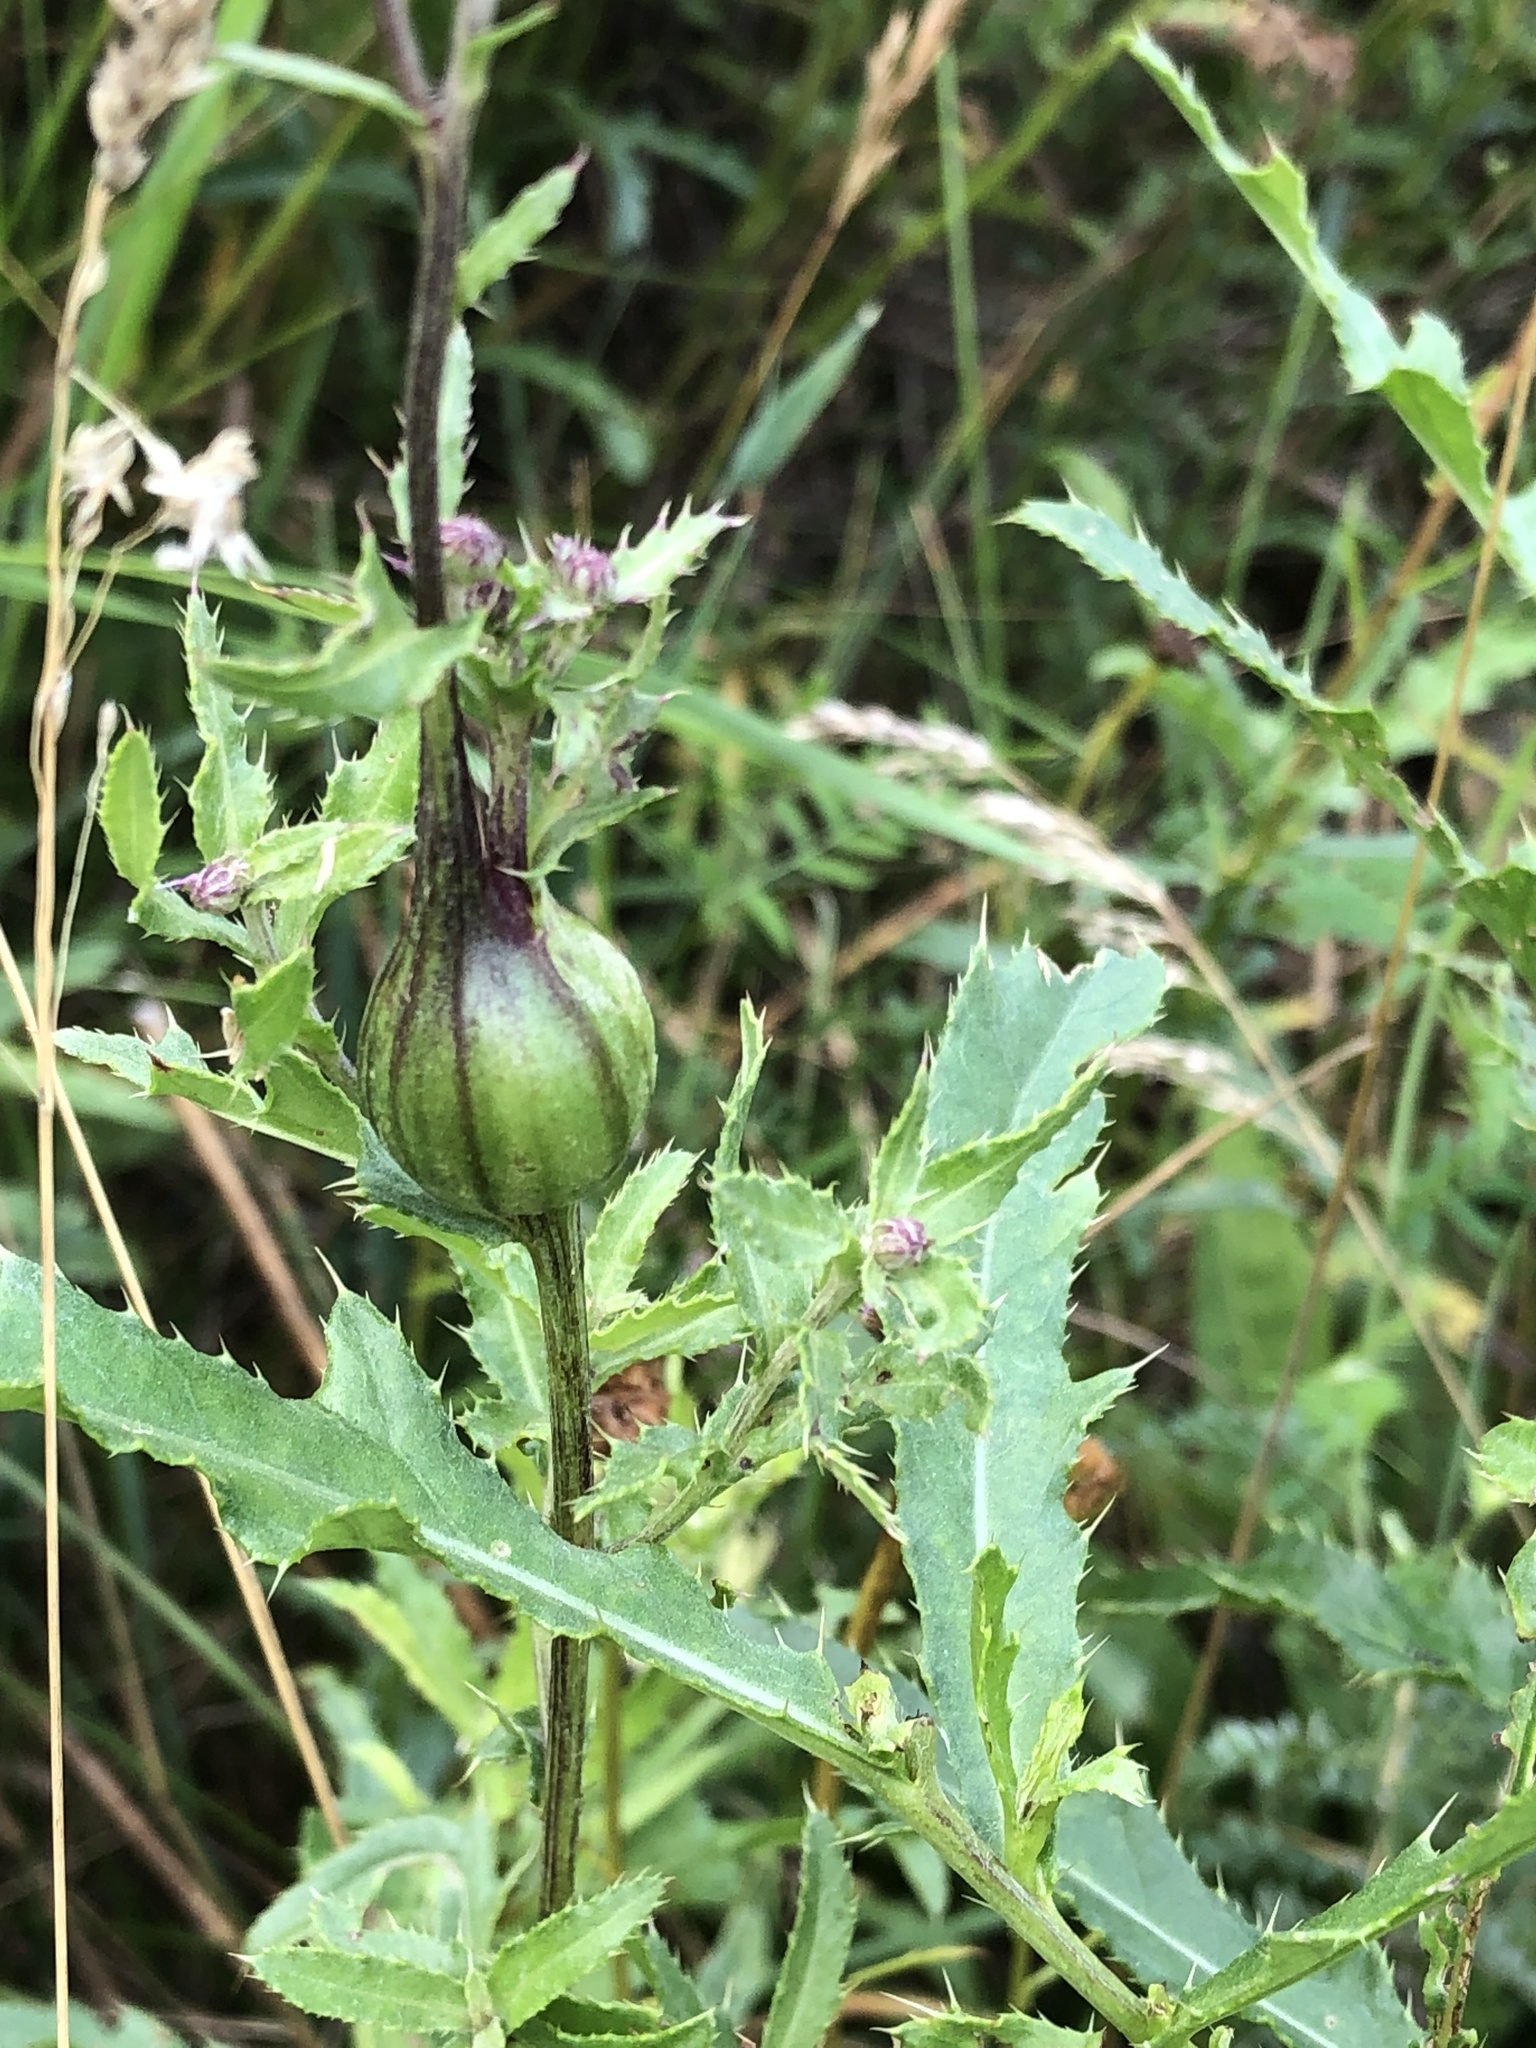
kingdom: Animalia
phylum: Arthropoda
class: Insecta
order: Diptera
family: Tephritidae
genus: Urophora
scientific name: Urophora cardui
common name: Fruit fly
